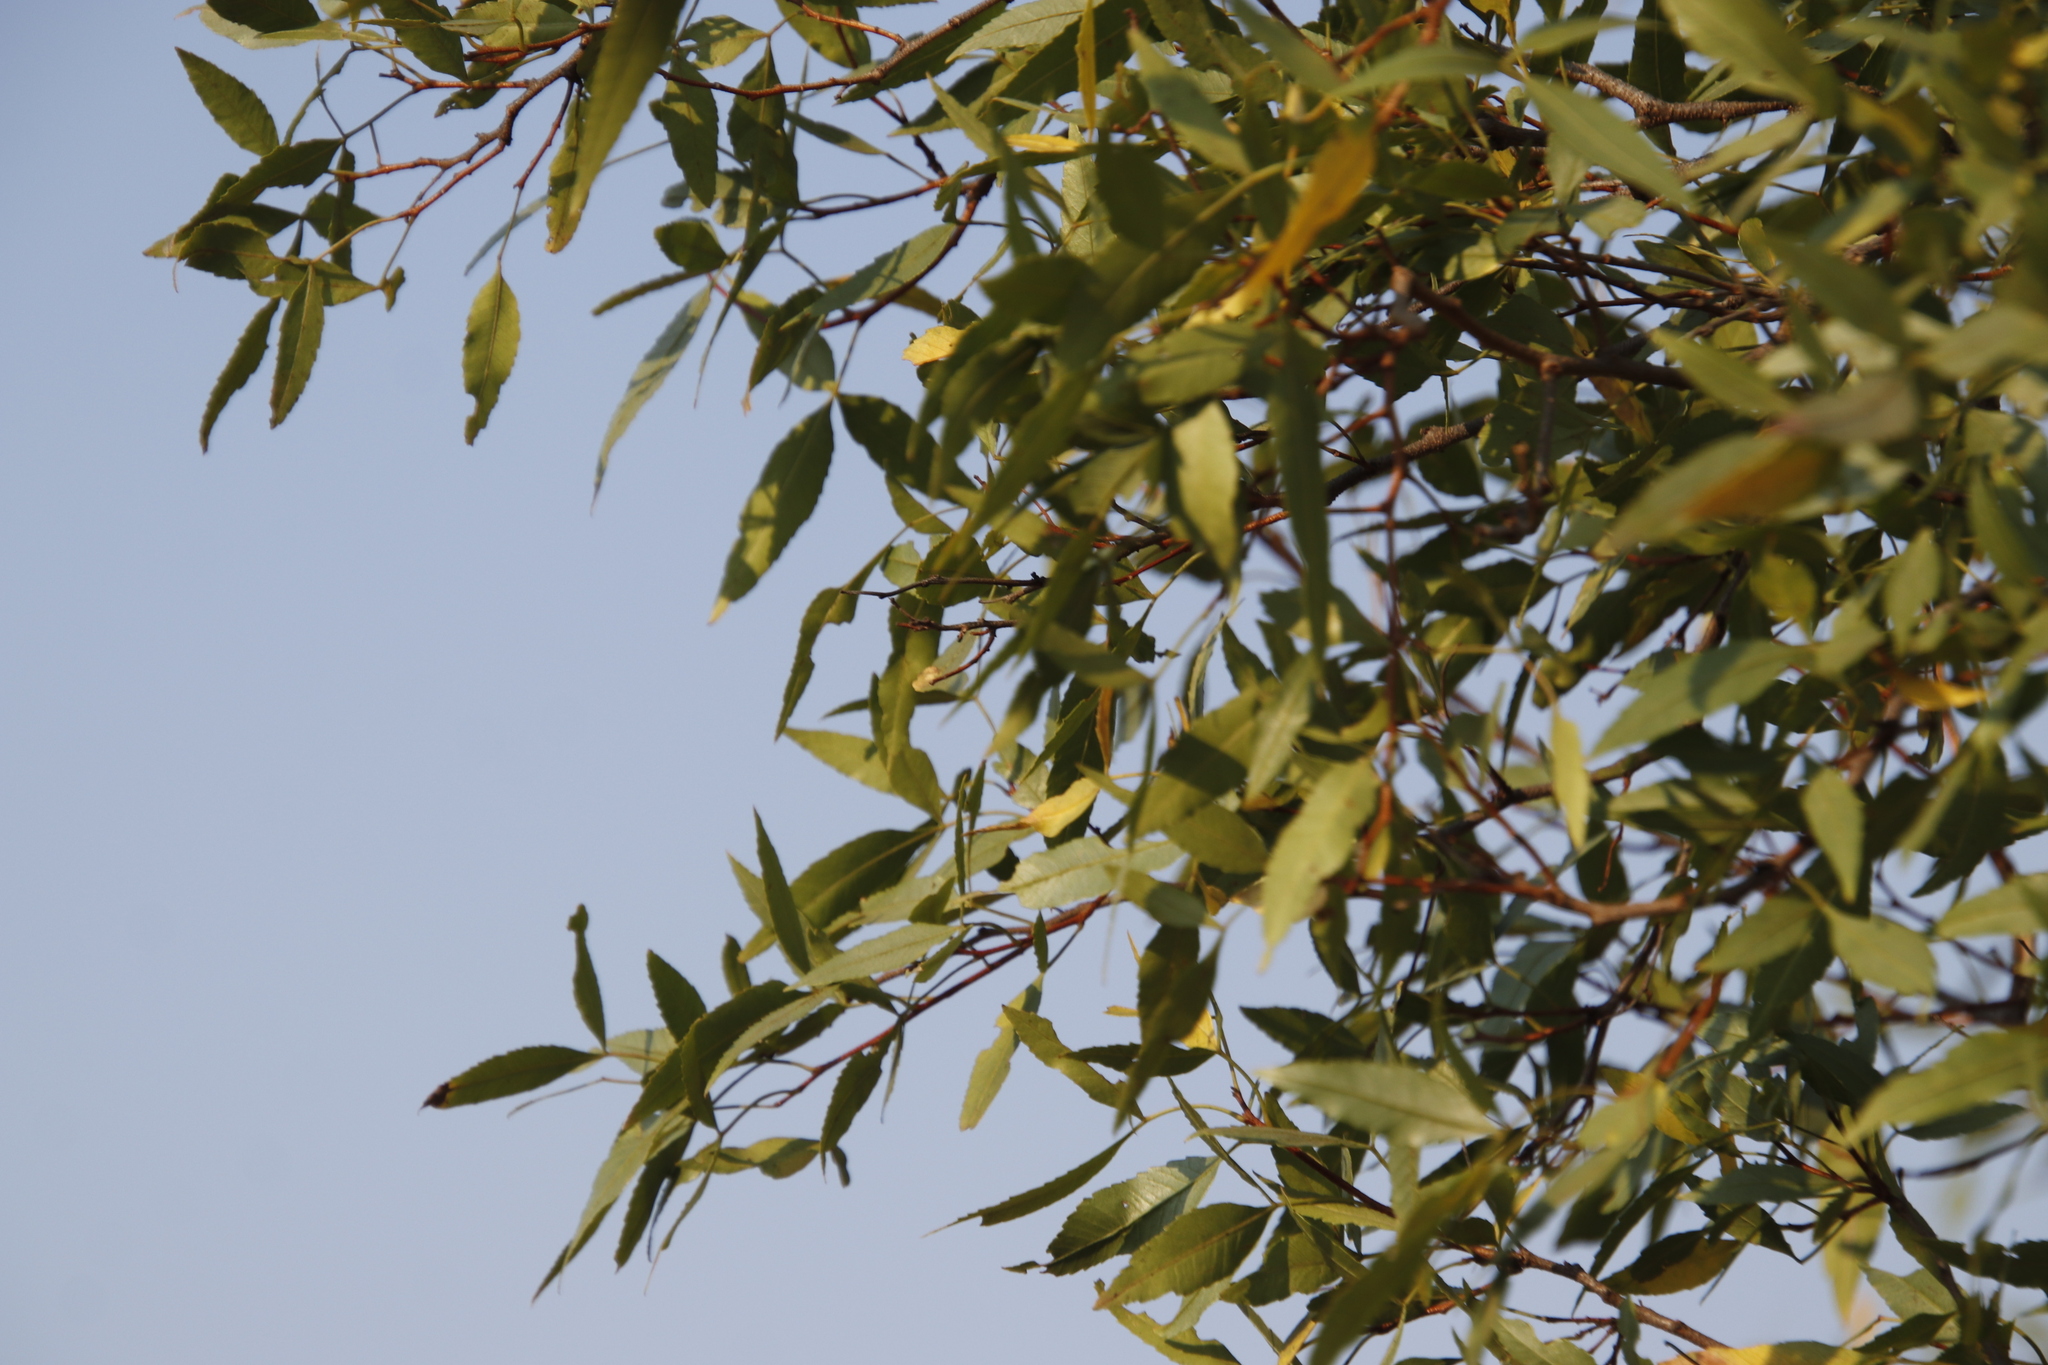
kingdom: Plantae
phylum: Tracheophyta
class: Magnoliopsida
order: Sapindales
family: Anacardiaceae
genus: Searsia
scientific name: Searsia leptodictya
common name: Mountain karee
